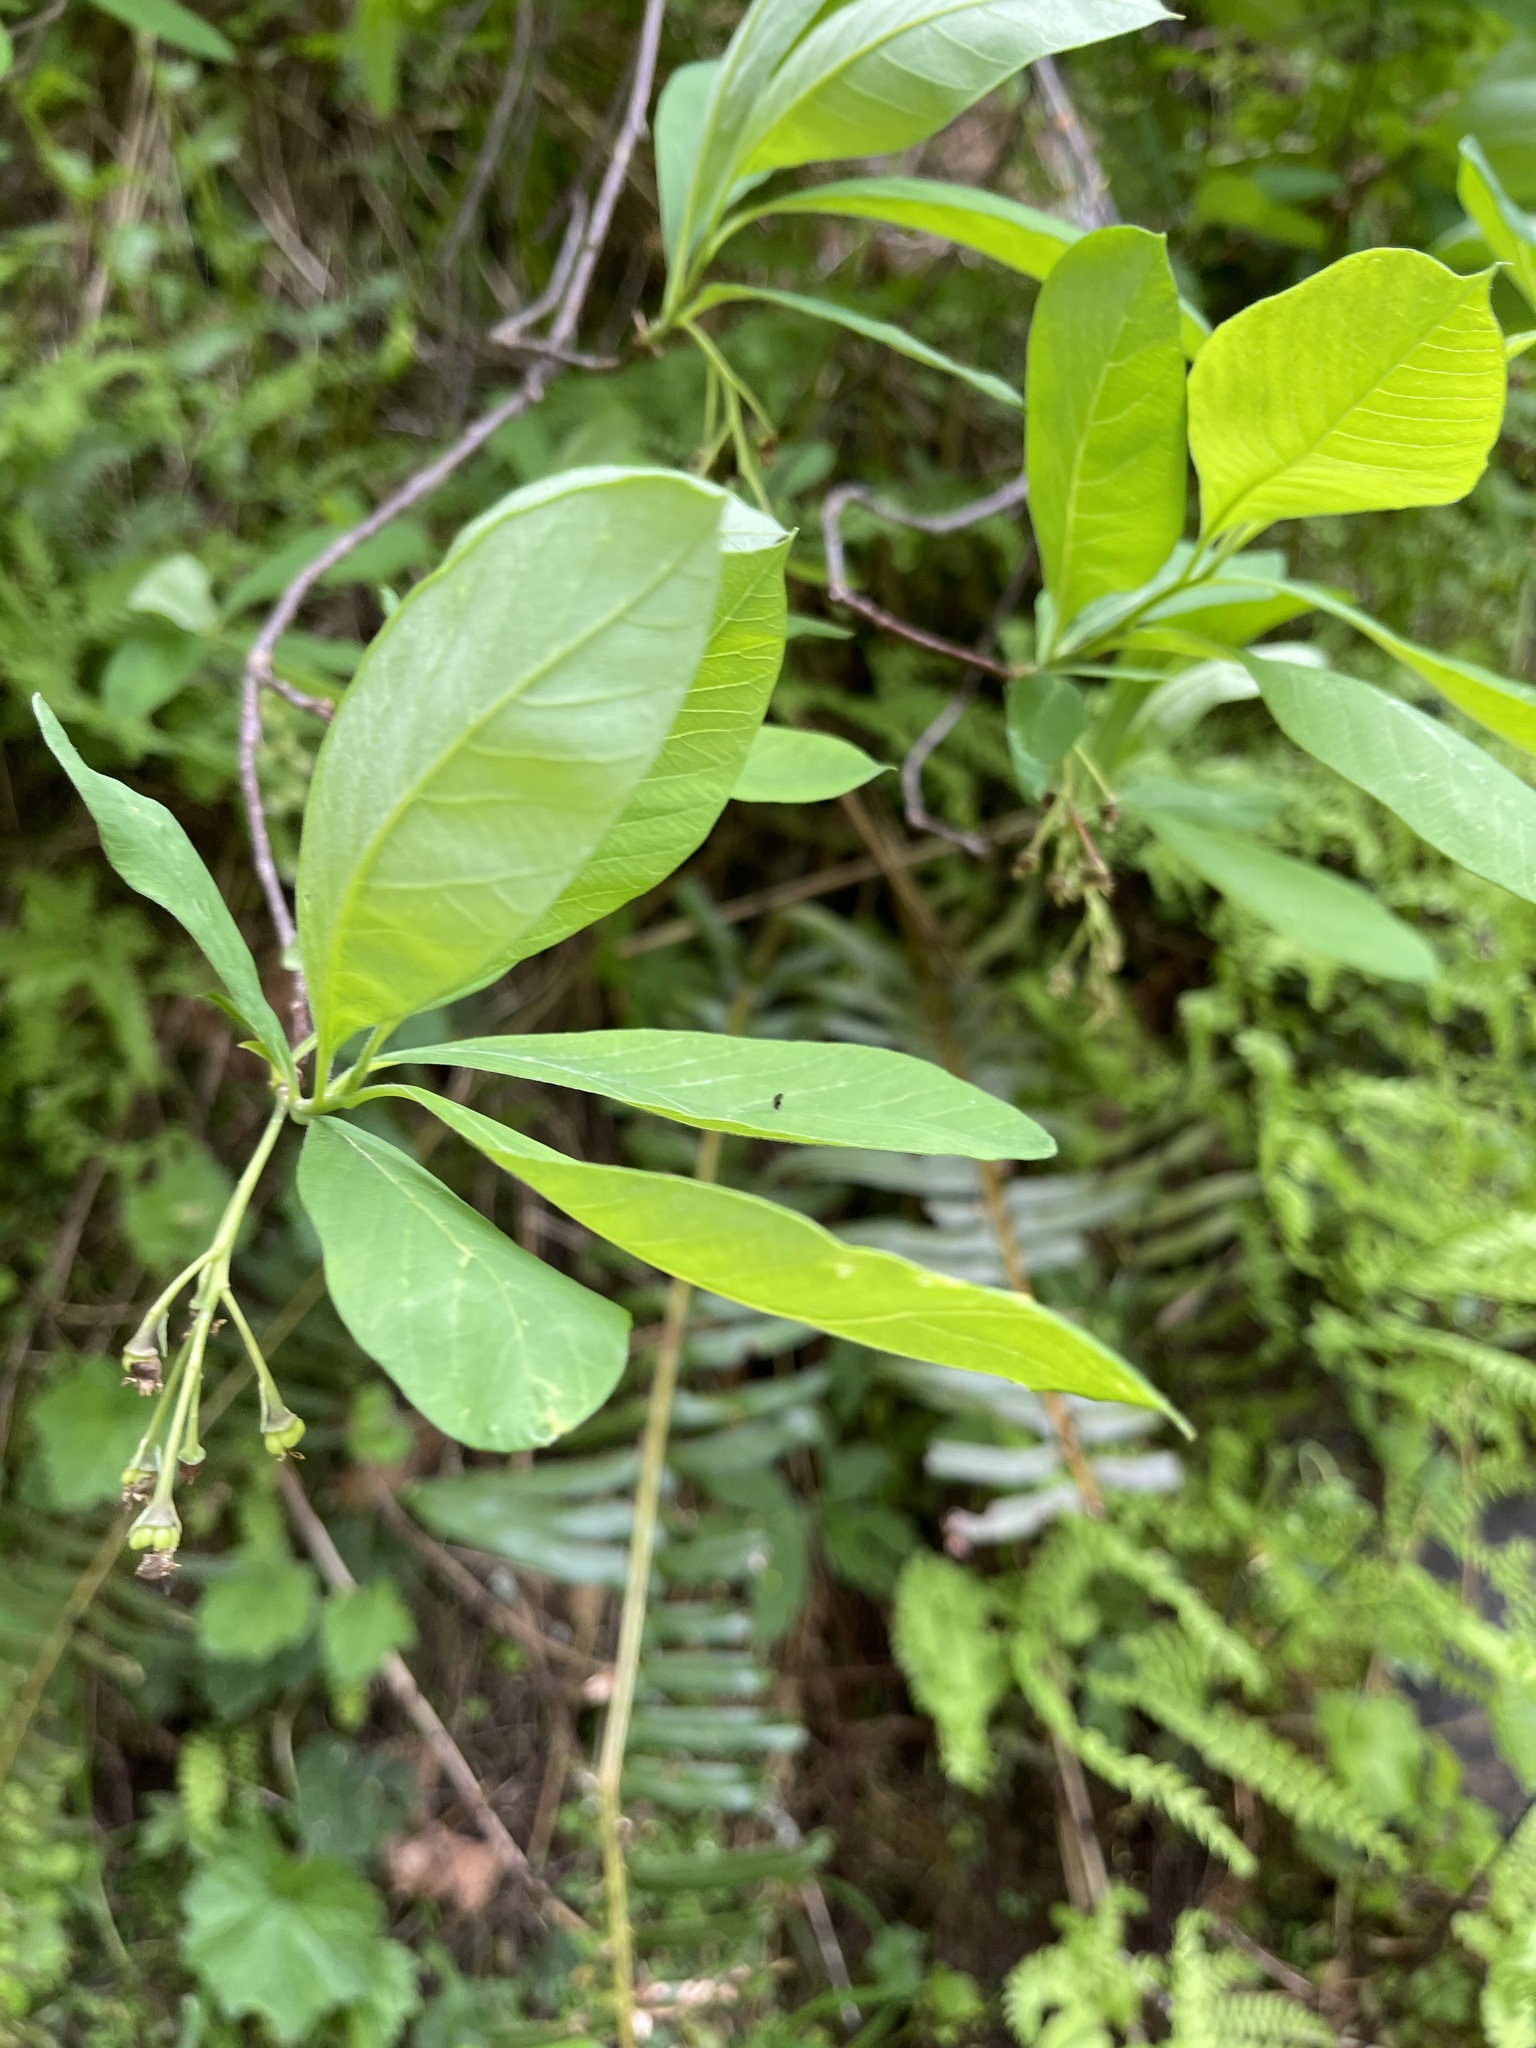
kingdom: Plantae
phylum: Tracheophyta
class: Magnoliopsida
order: Rosales
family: Rosaceae
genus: Oemleria
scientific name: Oemleria cerasiformis
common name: Osoberry
